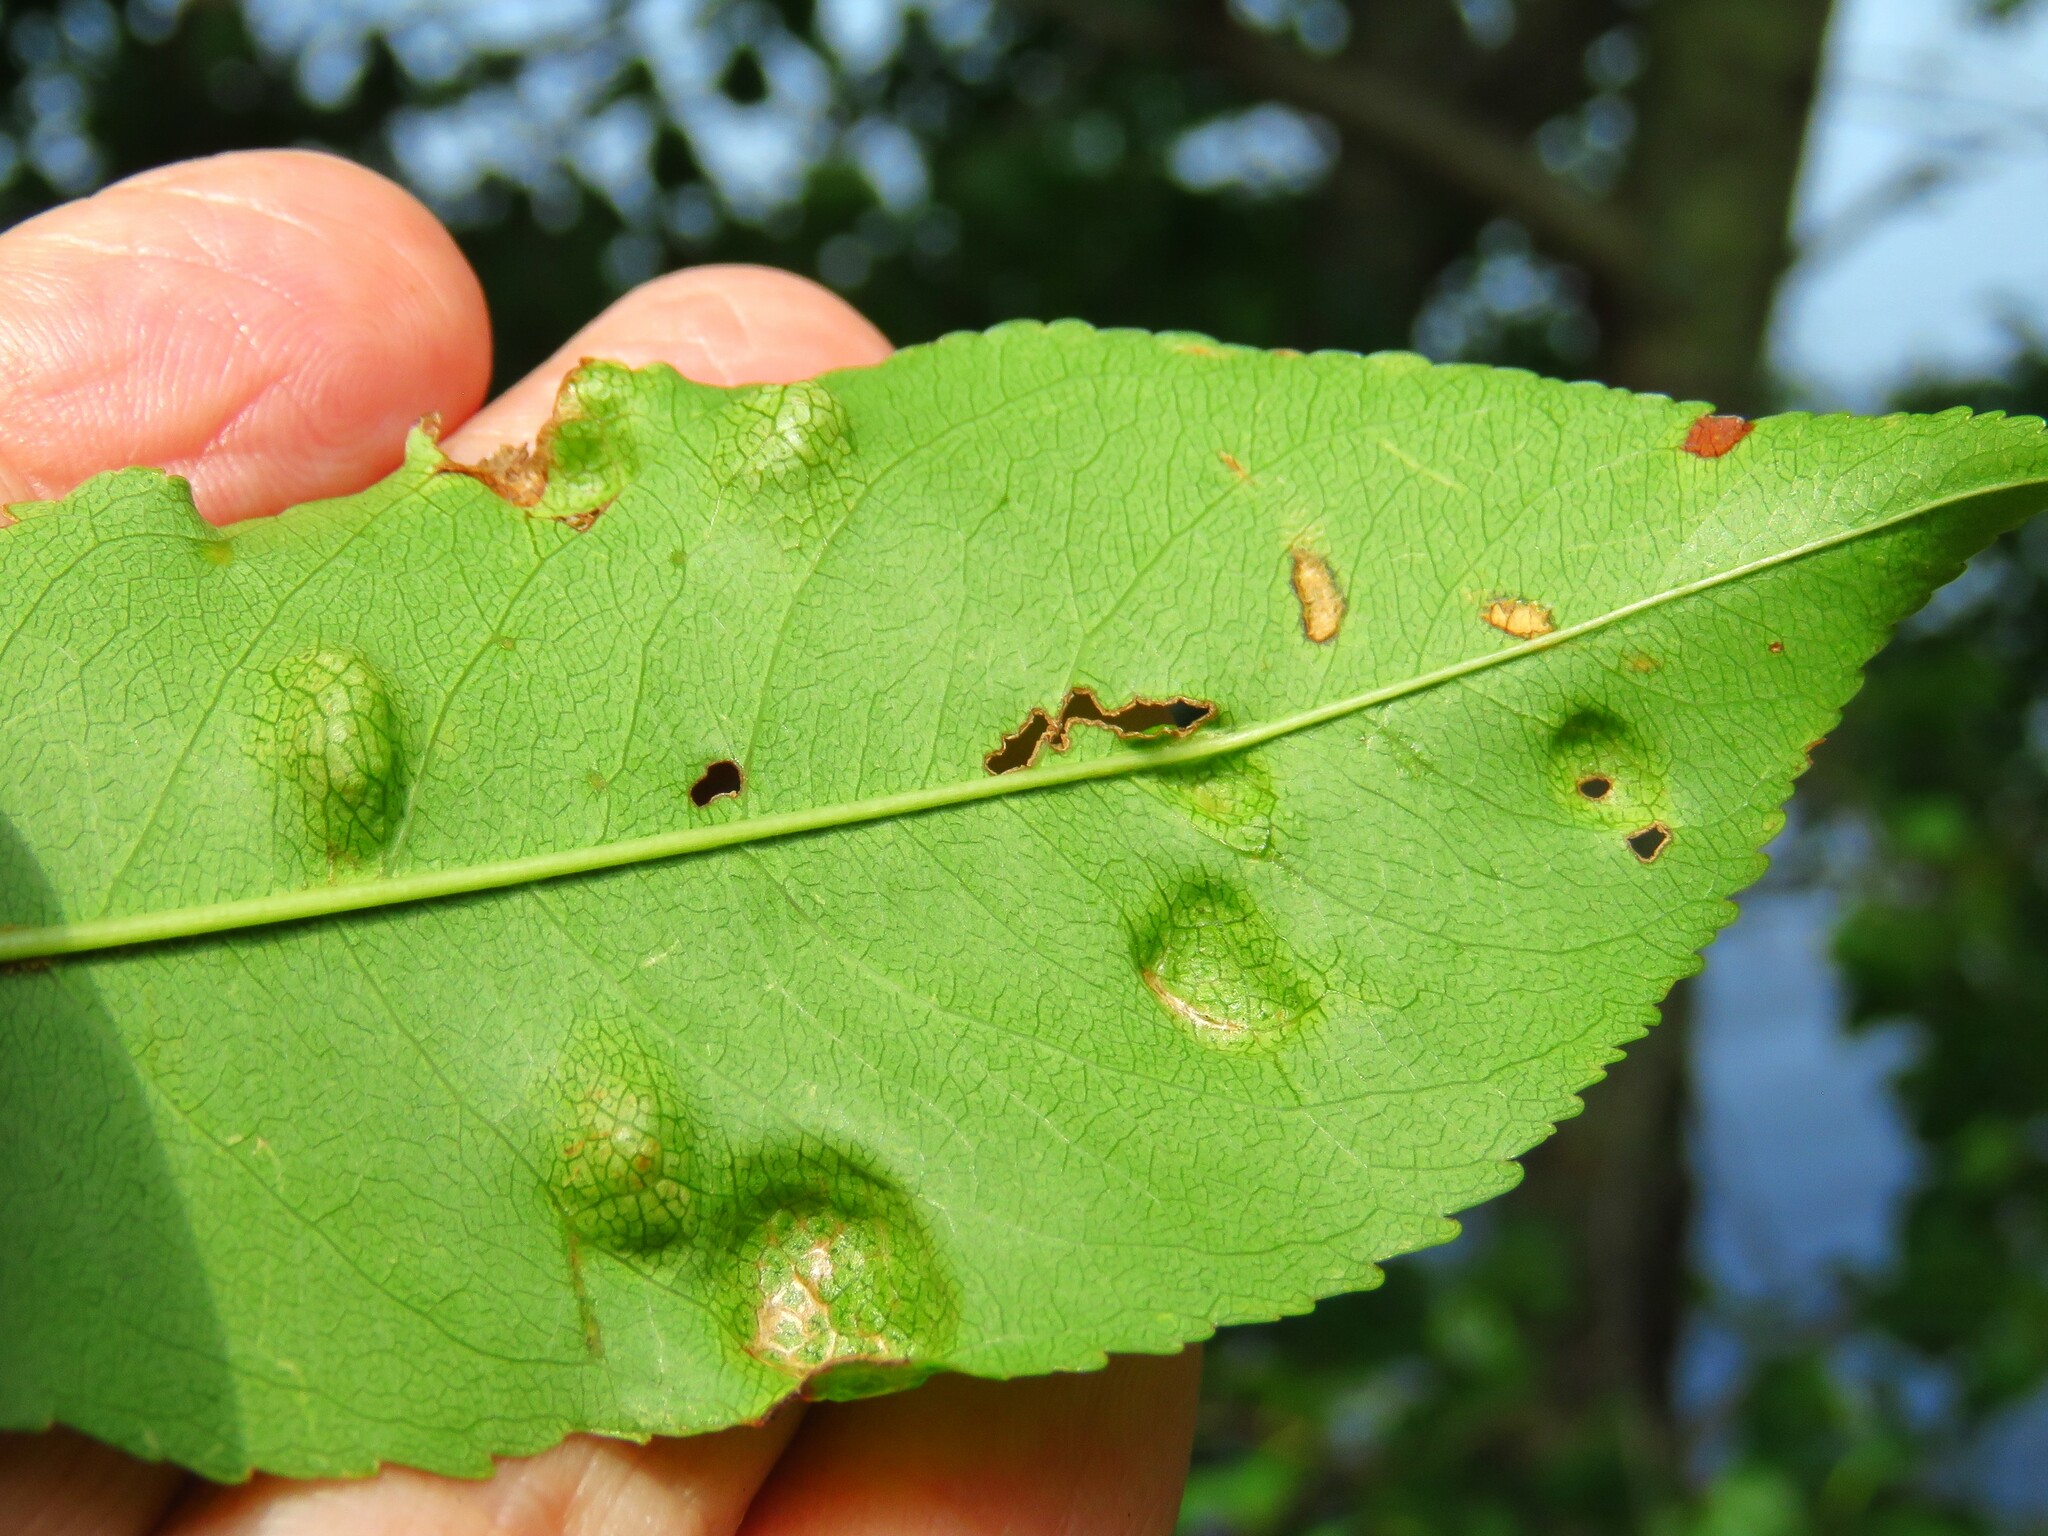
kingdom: Fungi
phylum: Ascomycota
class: Taphrinomycetes
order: Taphrinales
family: Taphrinaceae
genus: Taphrina
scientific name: Taphrina farlowii
